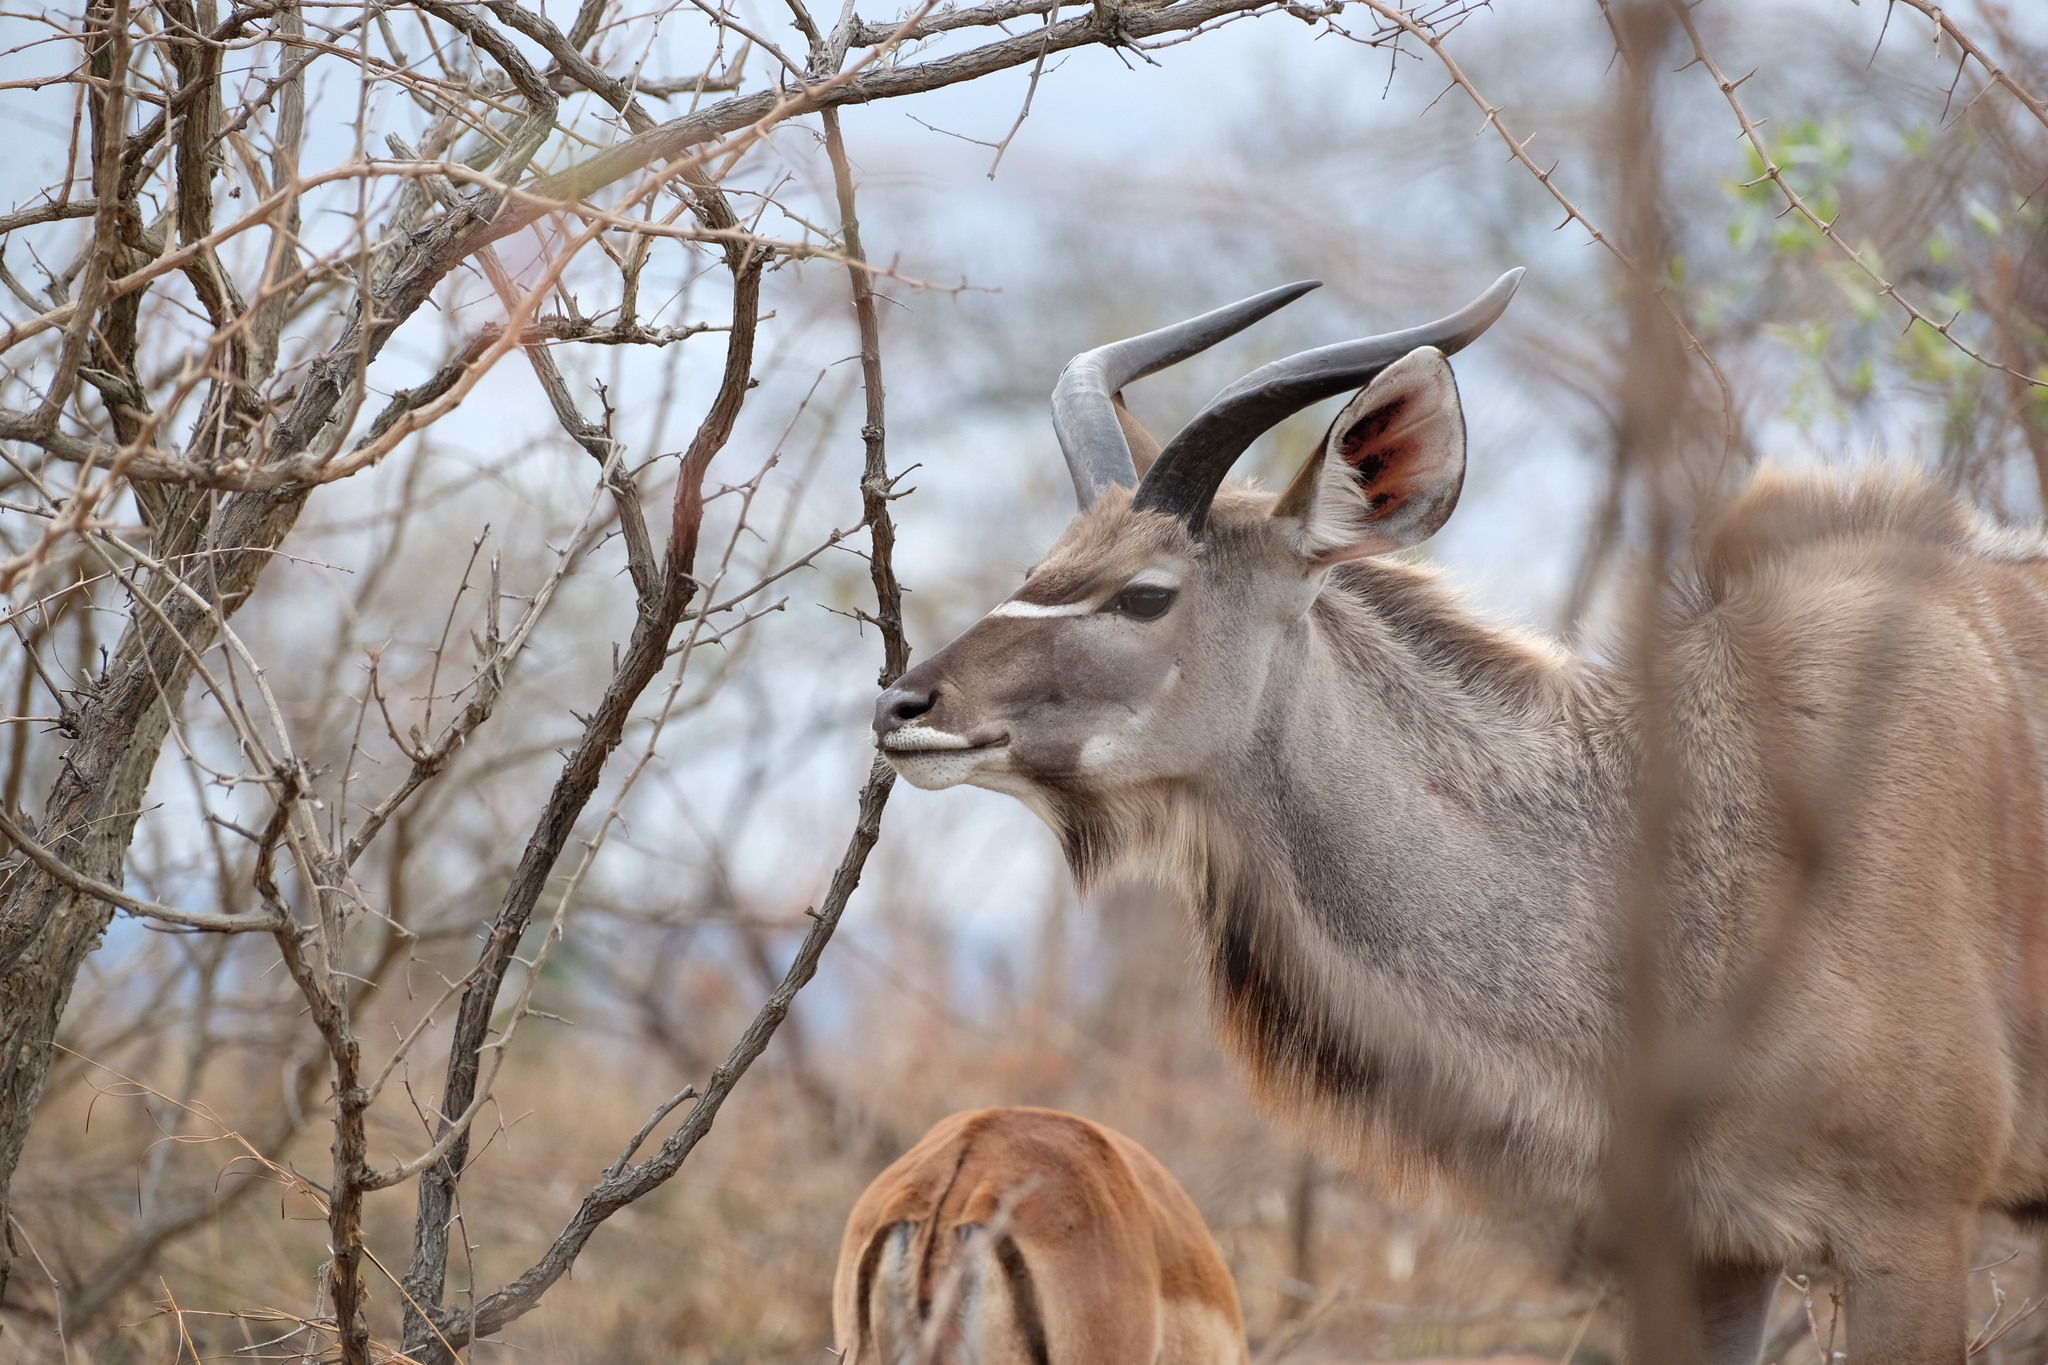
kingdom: Animalia
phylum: Chordata
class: Mammalia
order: Artiodactyla
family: Bovidae
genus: Tragelaphus
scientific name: Tragelaphus strepsiceros
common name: Greater kudu
